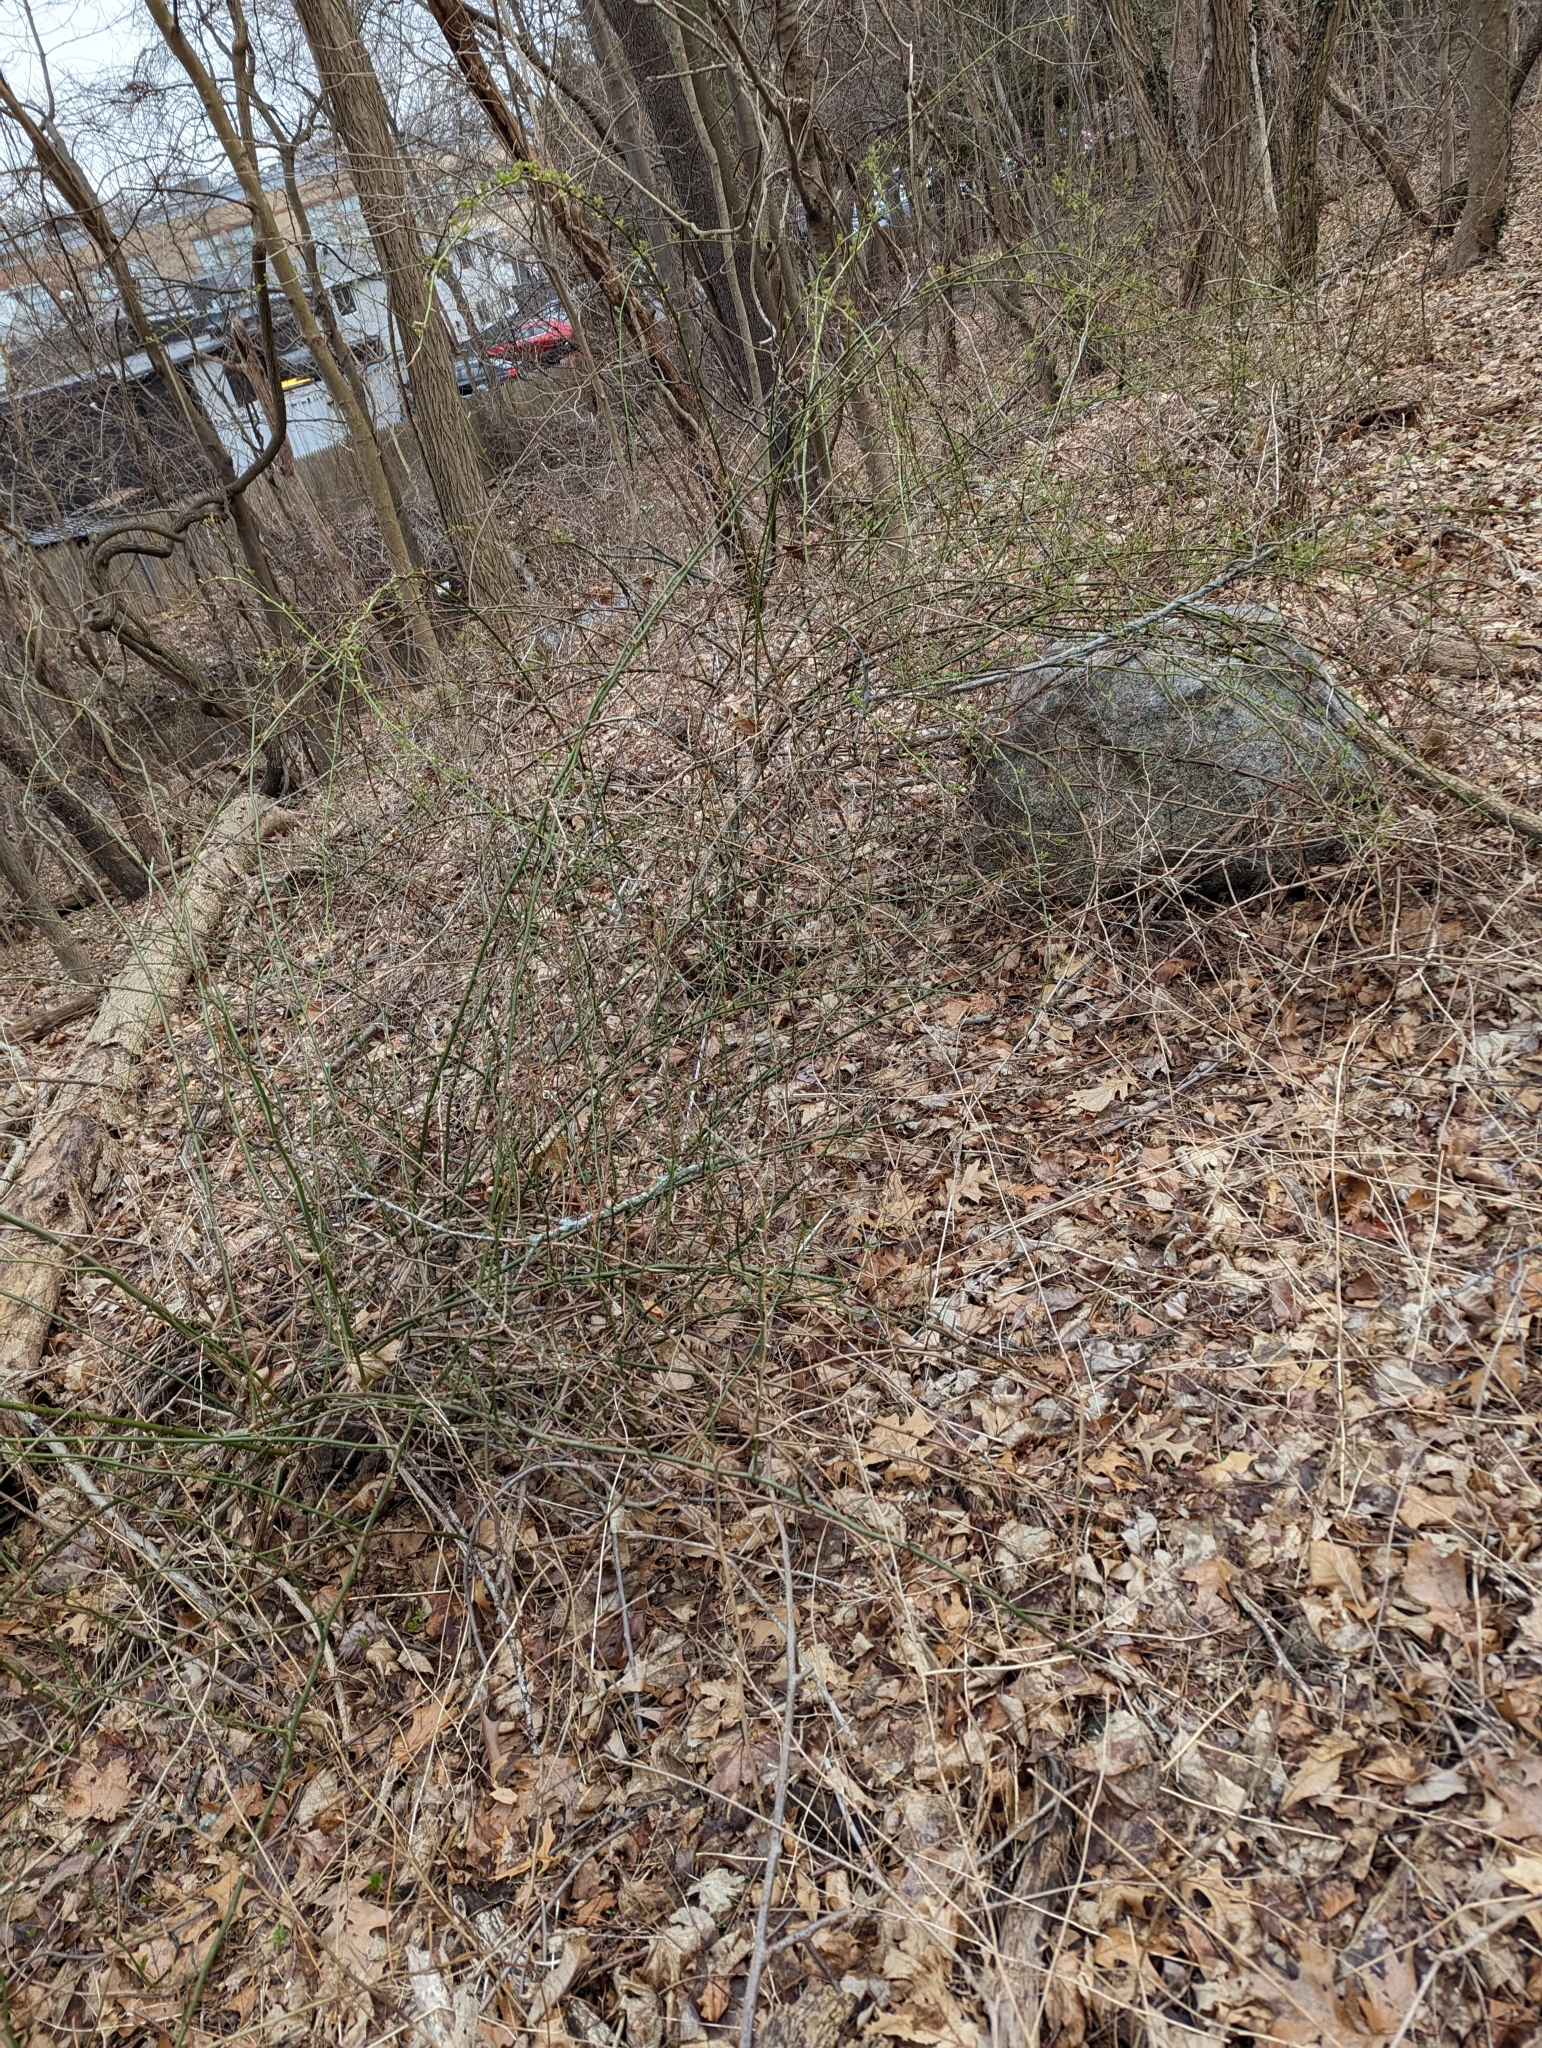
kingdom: Plantae
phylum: Tracheophyta
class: Magnoliopsida
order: Rosales
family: Rosaceae
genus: Rosa
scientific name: Rosa multiflora
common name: Multiflora rose
